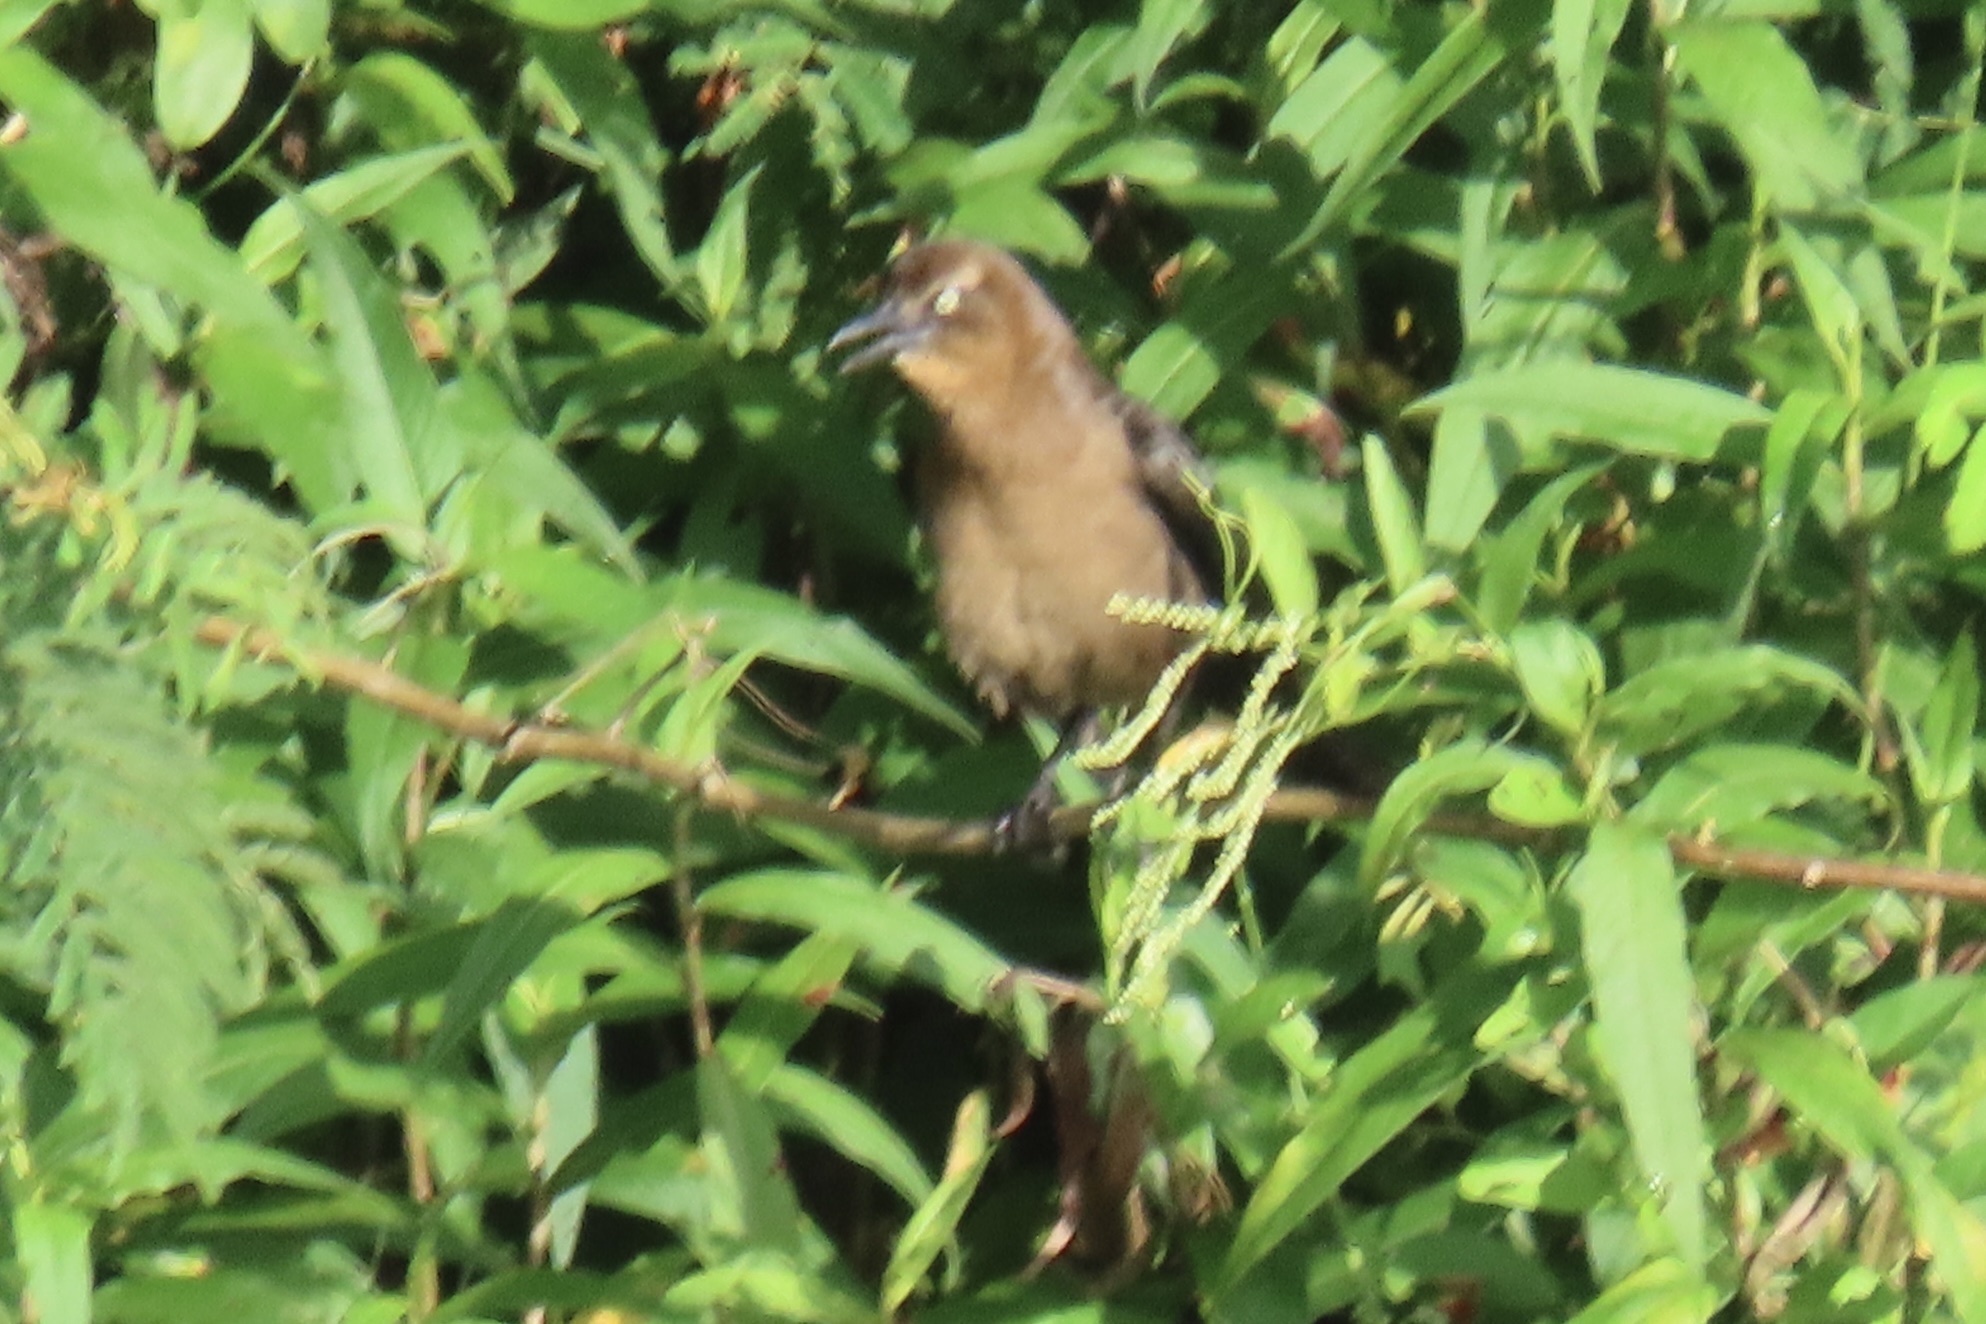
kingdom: Animalia
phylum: Chordata
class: Aves
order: Passeriformes
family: Icteridae
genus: Quiscalus
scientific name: Quiscalus mexicanus
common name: Great-tailed grackle
